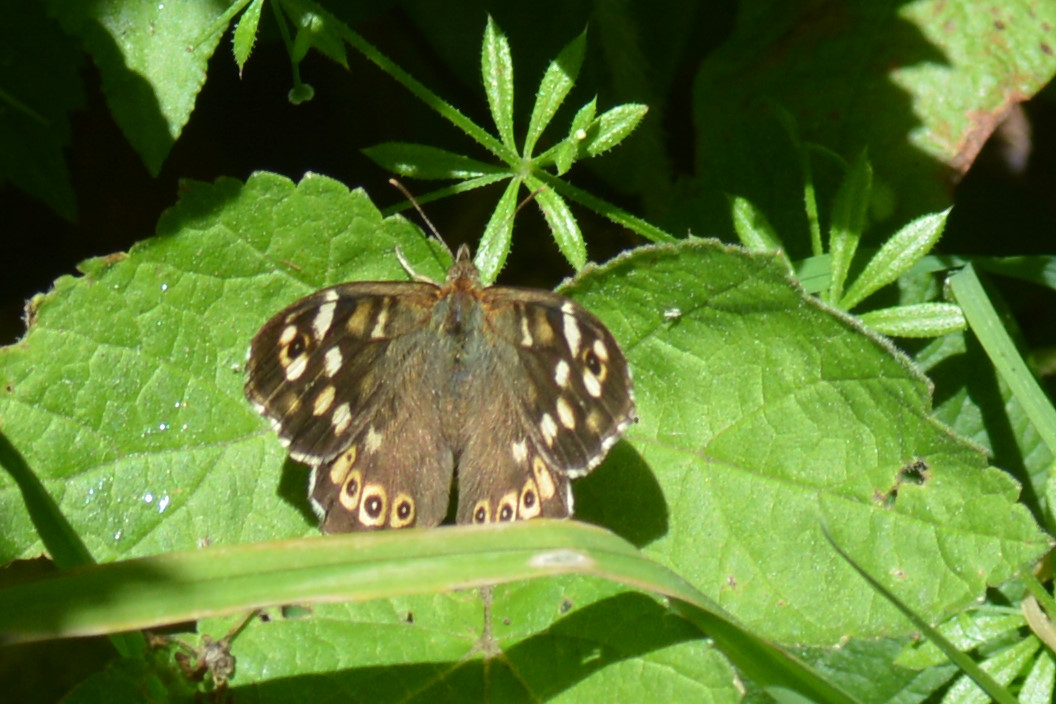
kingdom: Animalia
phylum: Arthropoda
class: Insecta
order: Lepidoptera
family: Nymphalidae
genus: Pararge
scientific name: Pararge aegeria
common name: Speckled wood
